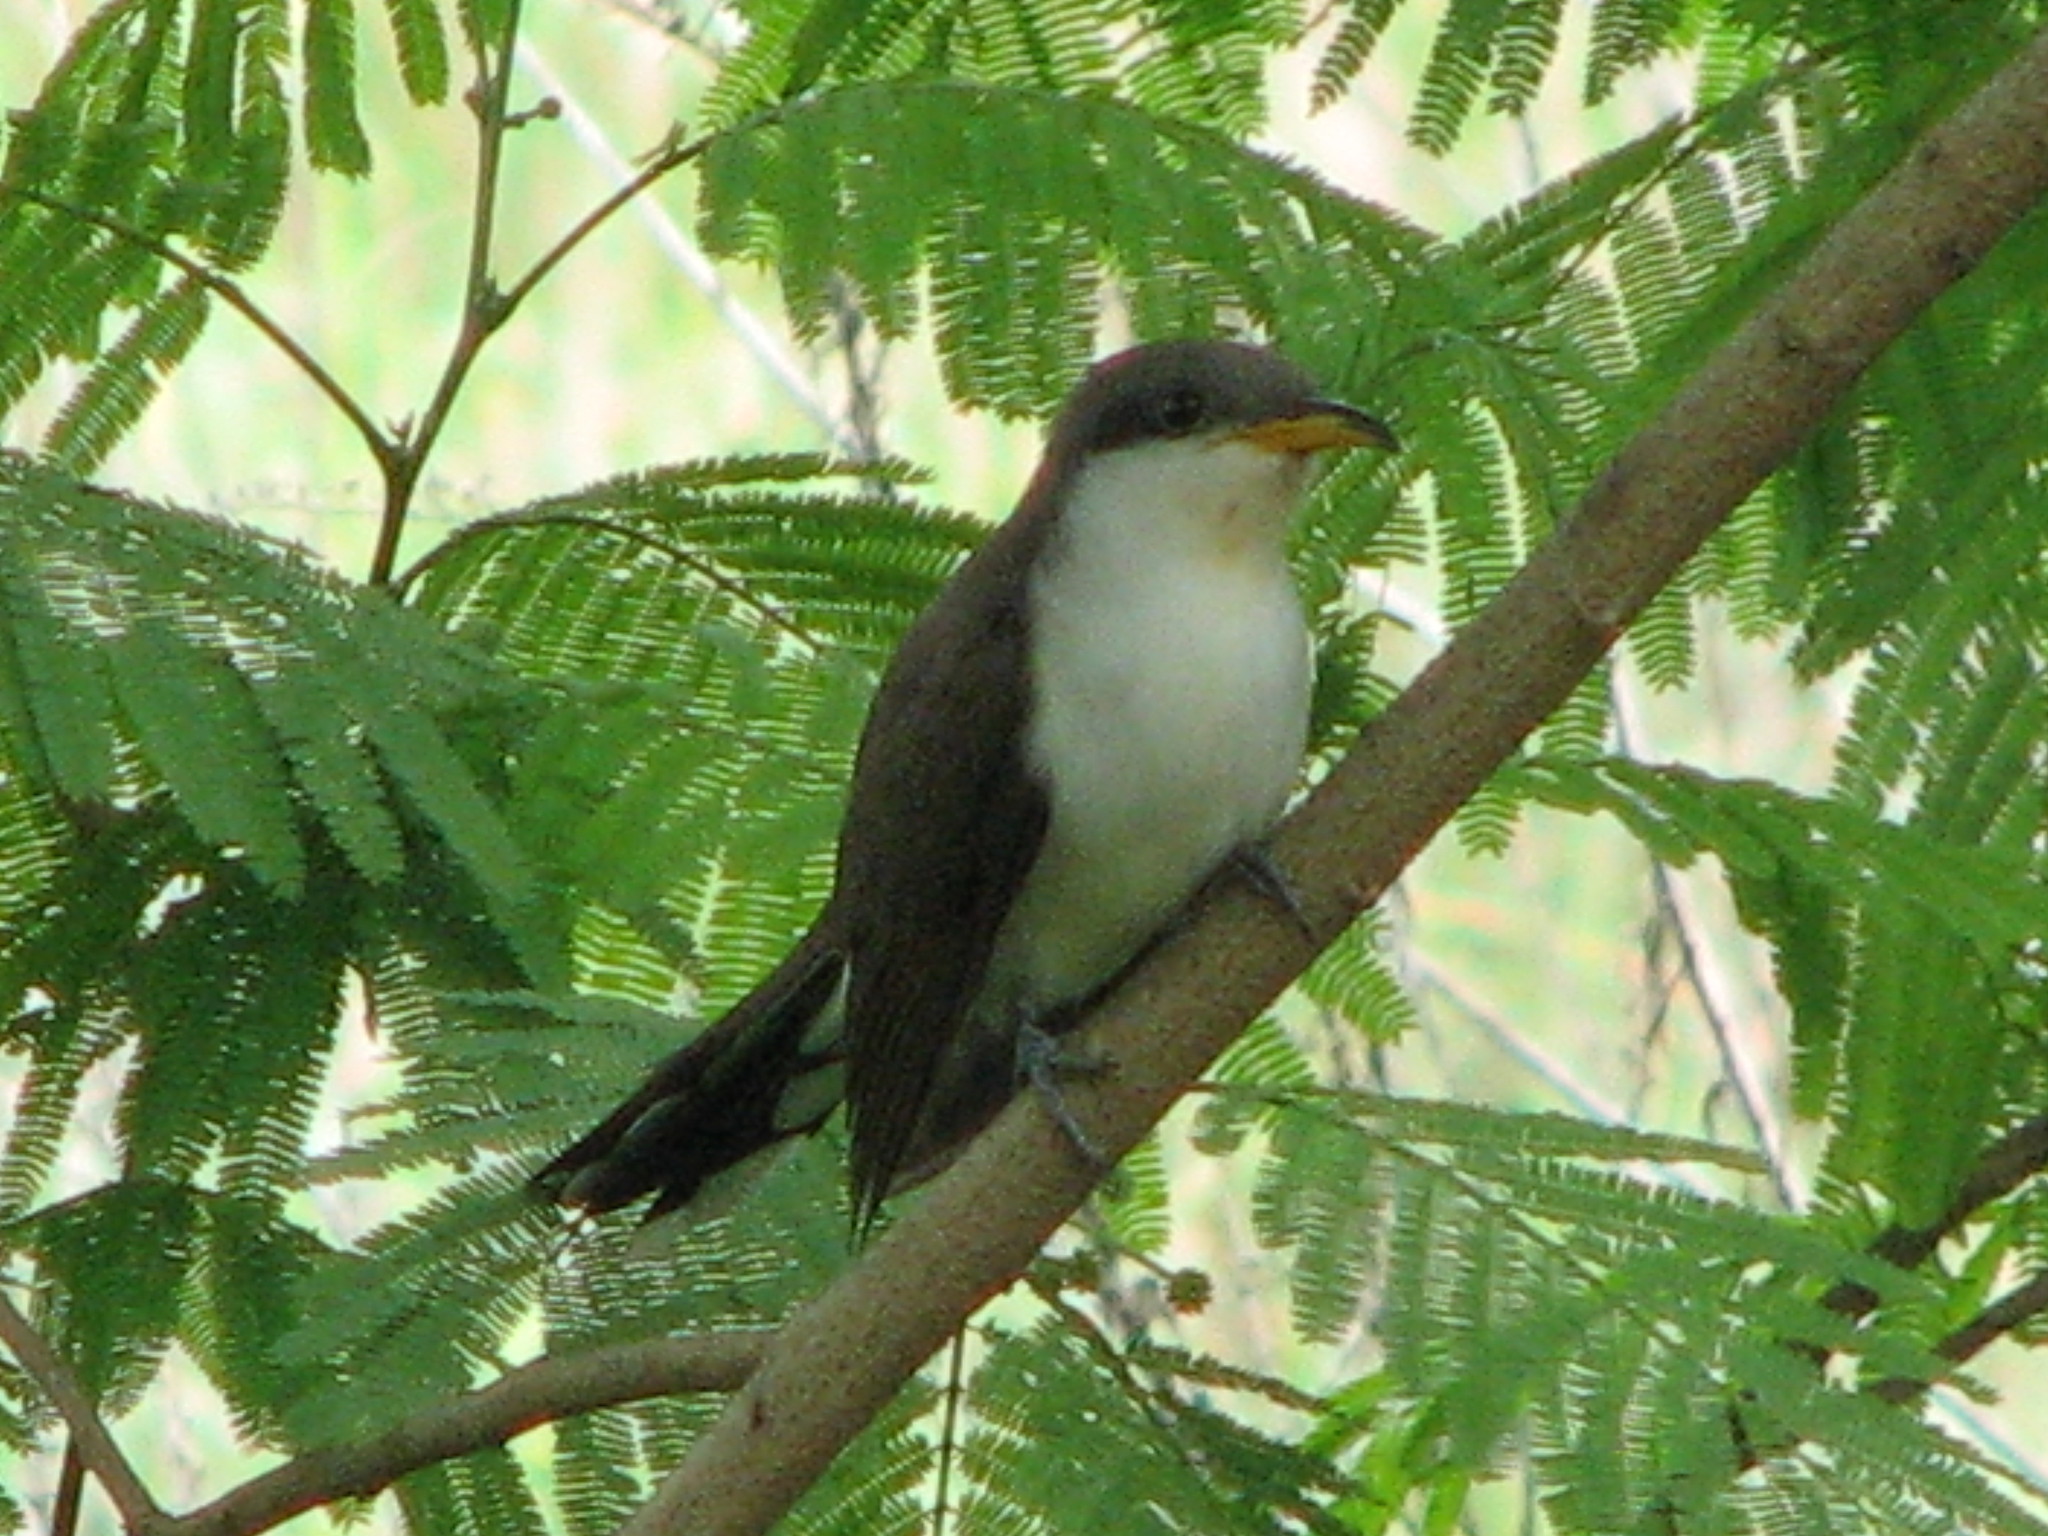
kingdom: Animalia
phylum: Chordata
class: Aves
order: Cuculiformes
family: Cuculidae
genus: Coccyzus
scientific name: Coccyzus americanus
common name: Yellow-billed cuckoo
